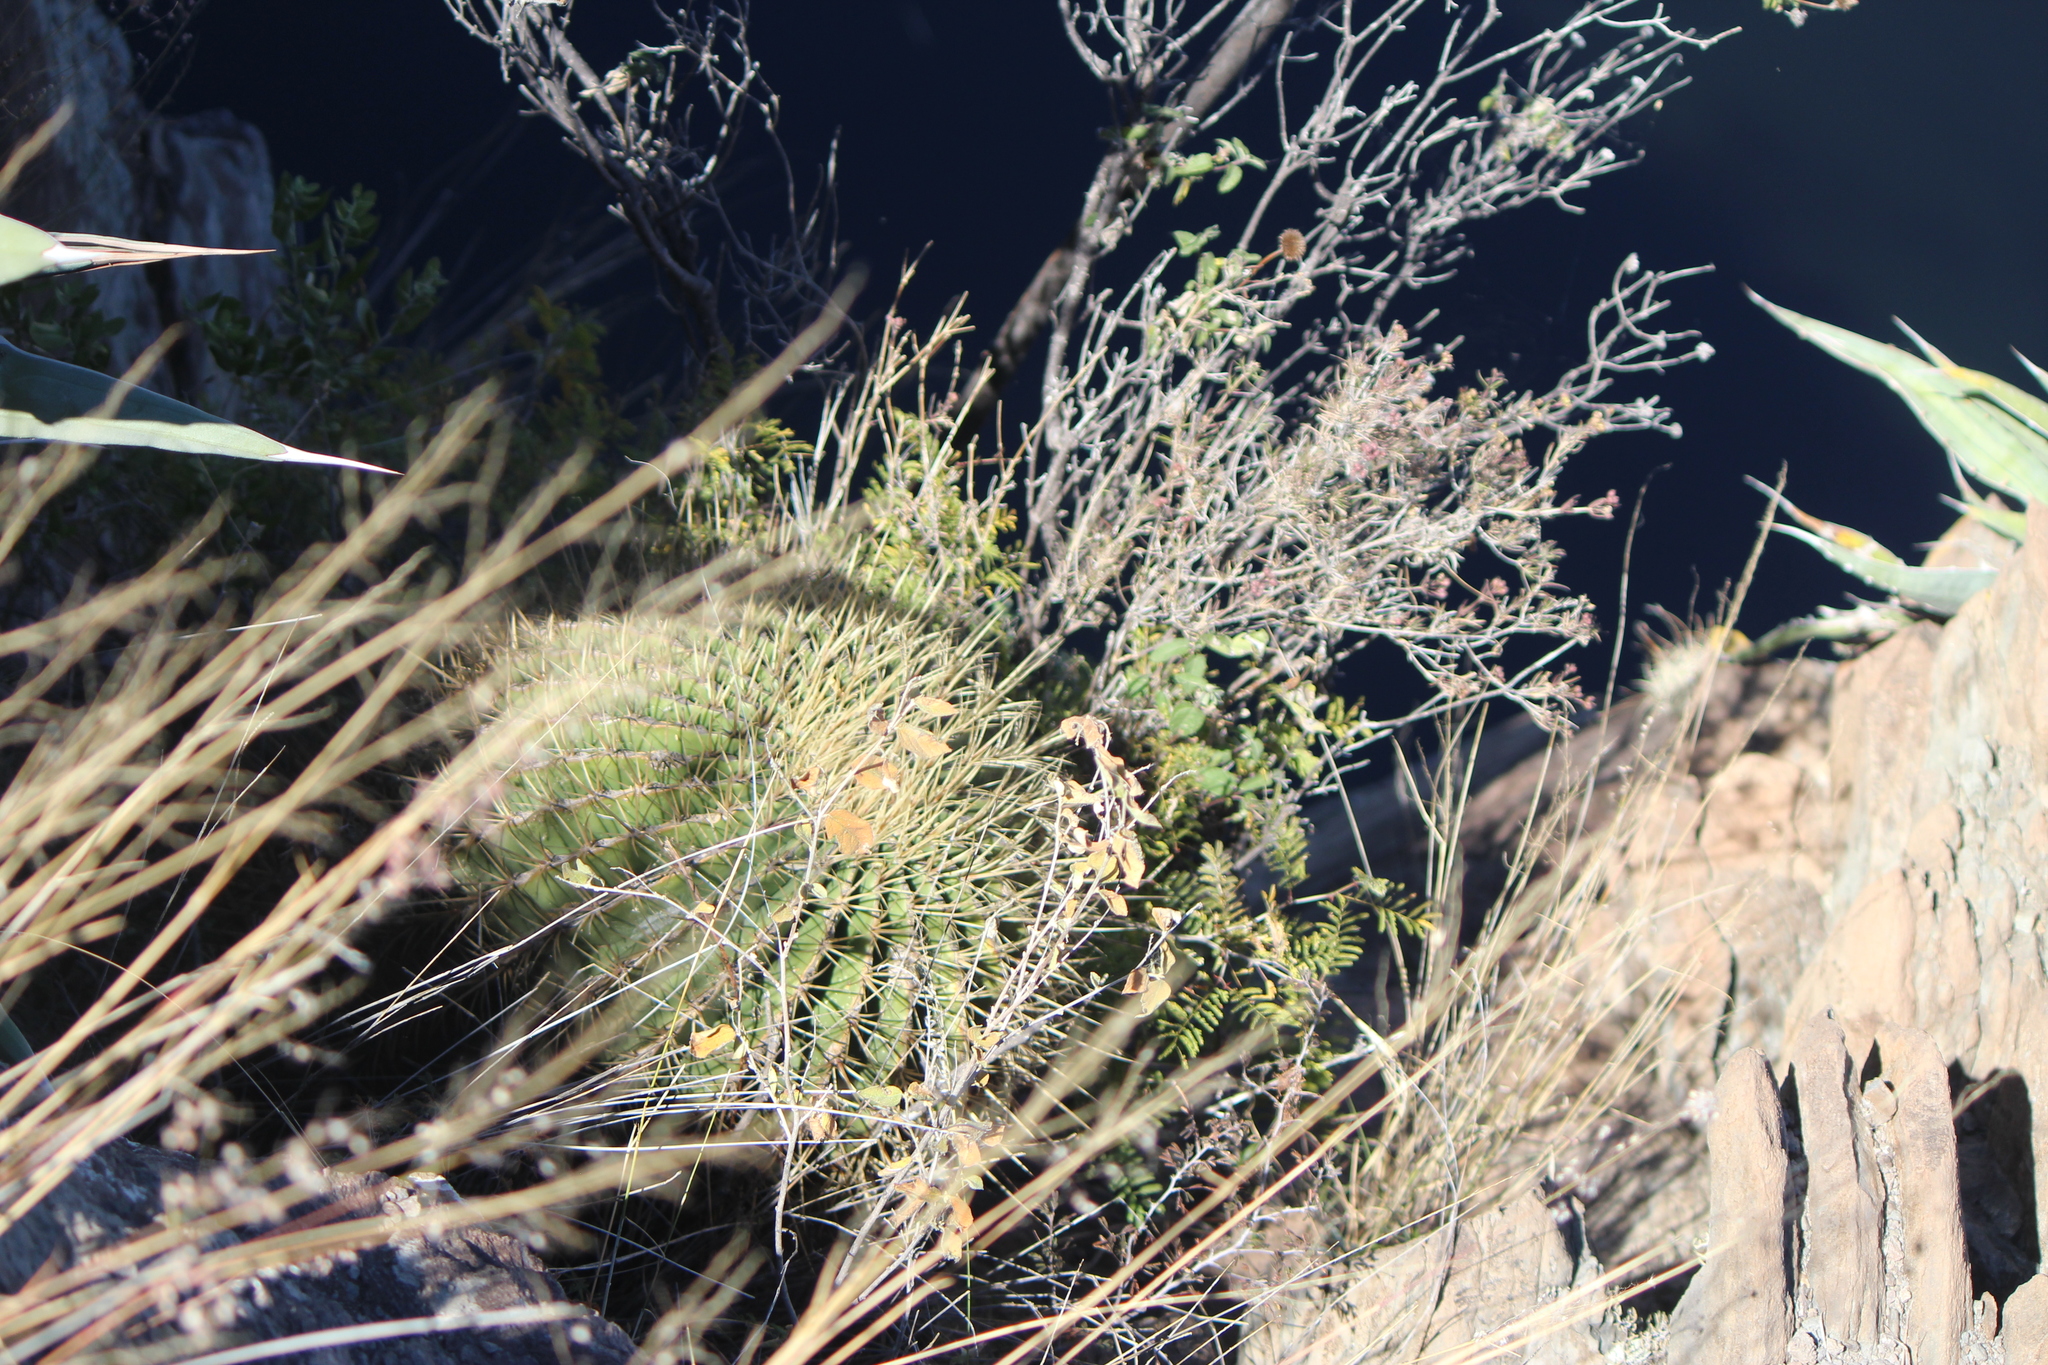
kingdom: Plantae
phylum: Tracheophyta
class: Magnoliopsida
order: Caryophyllales
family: Cactaceae
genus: Bisnaga
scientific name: Bisnaga histrix
